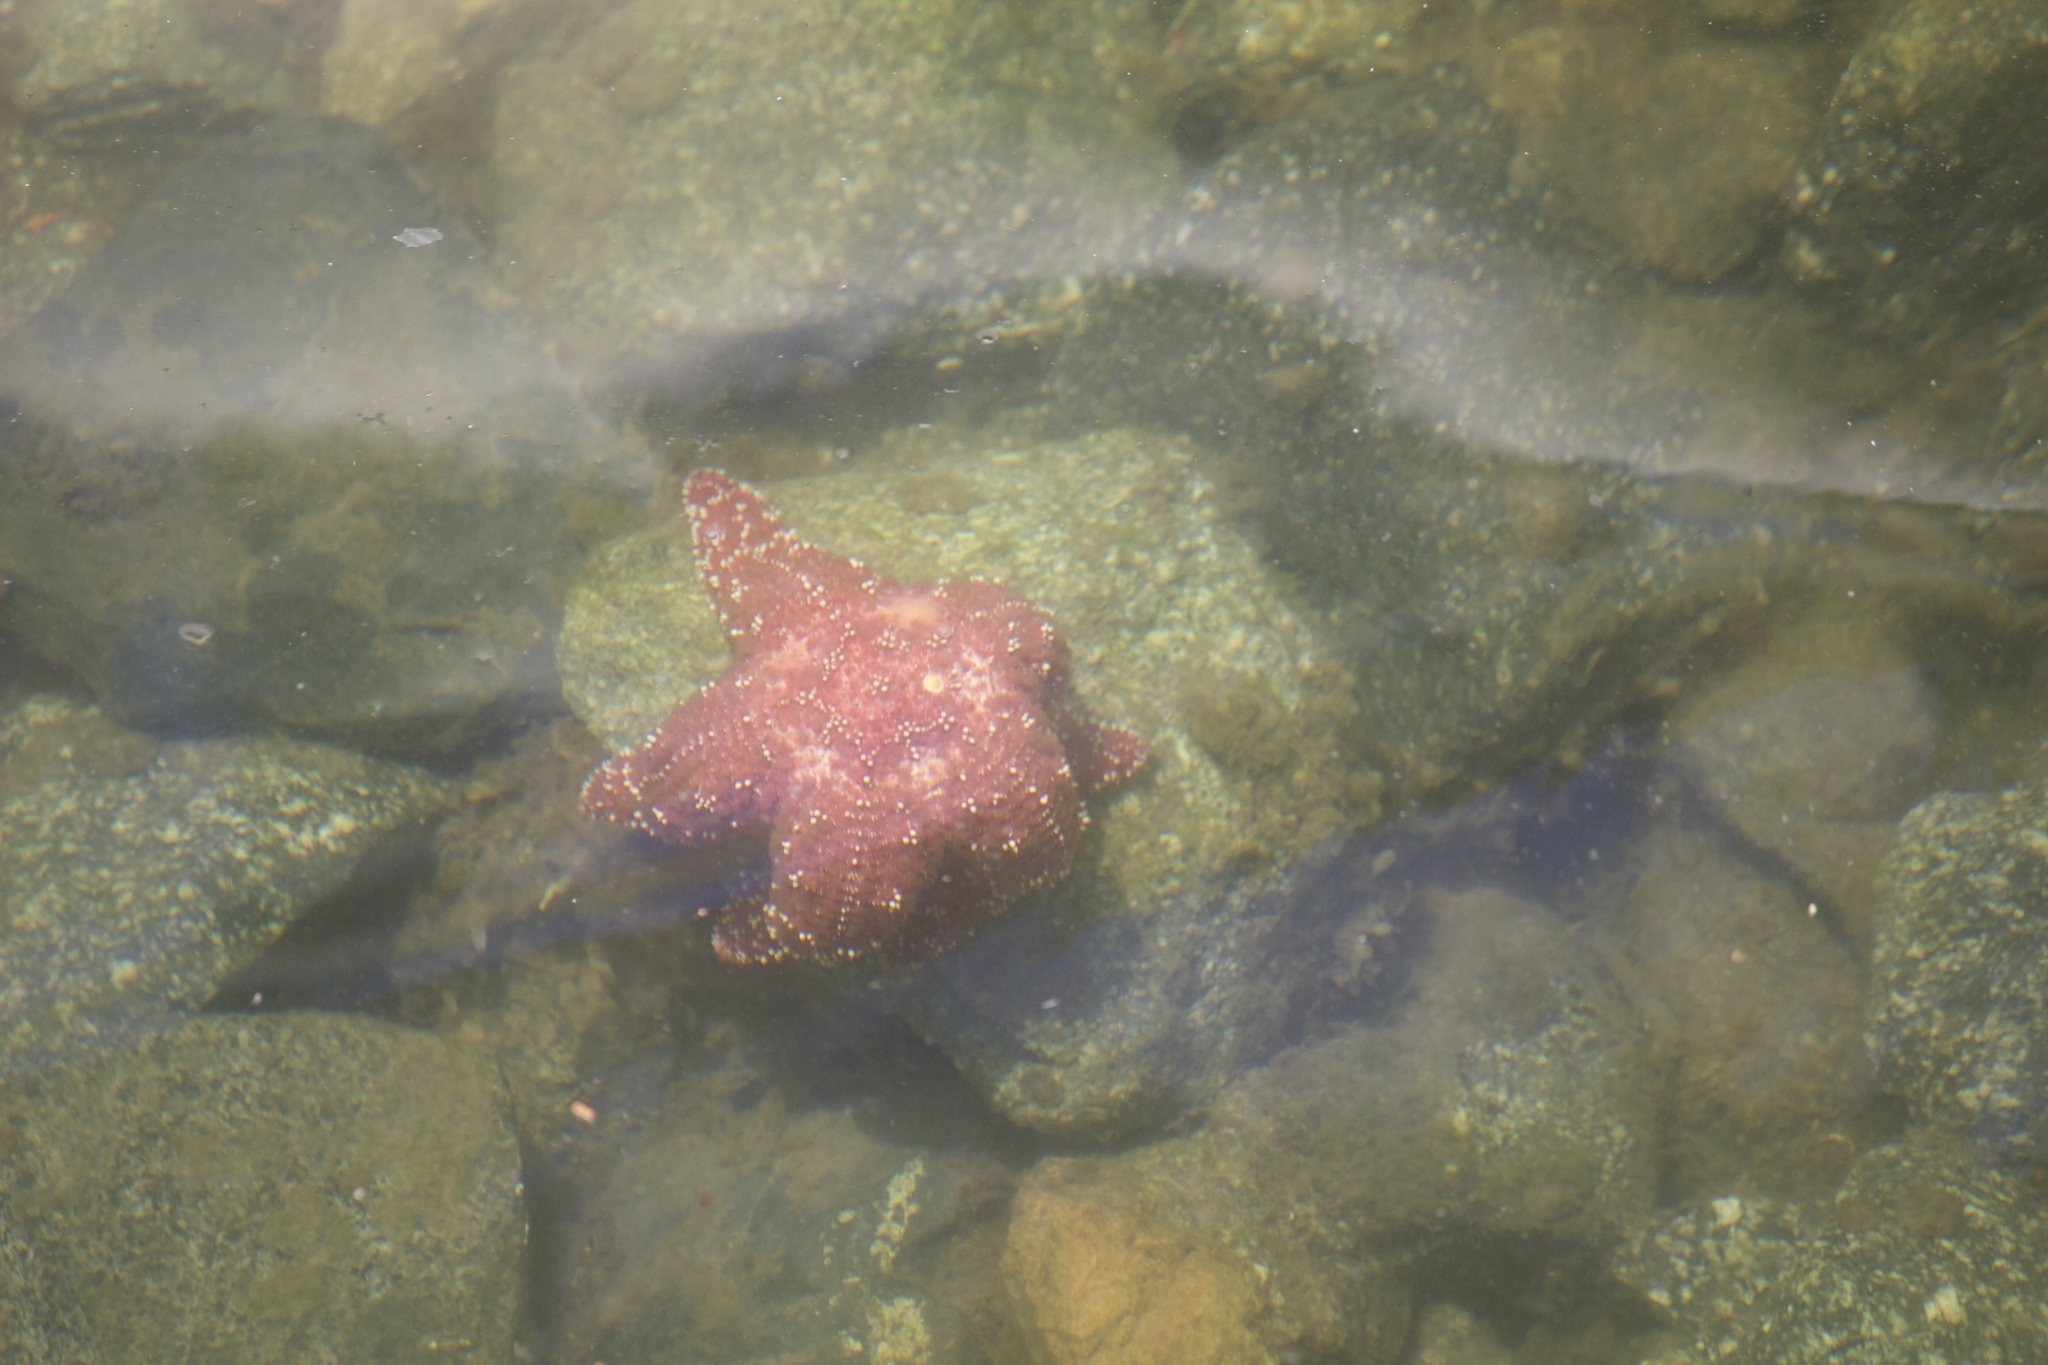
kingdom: Animalia
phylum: Echinodermata
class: Asteroidea
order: Forcipulatida
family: Asteriidae
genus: Pisaster
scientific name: Pisaster ochraceus
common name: Ochre stars
